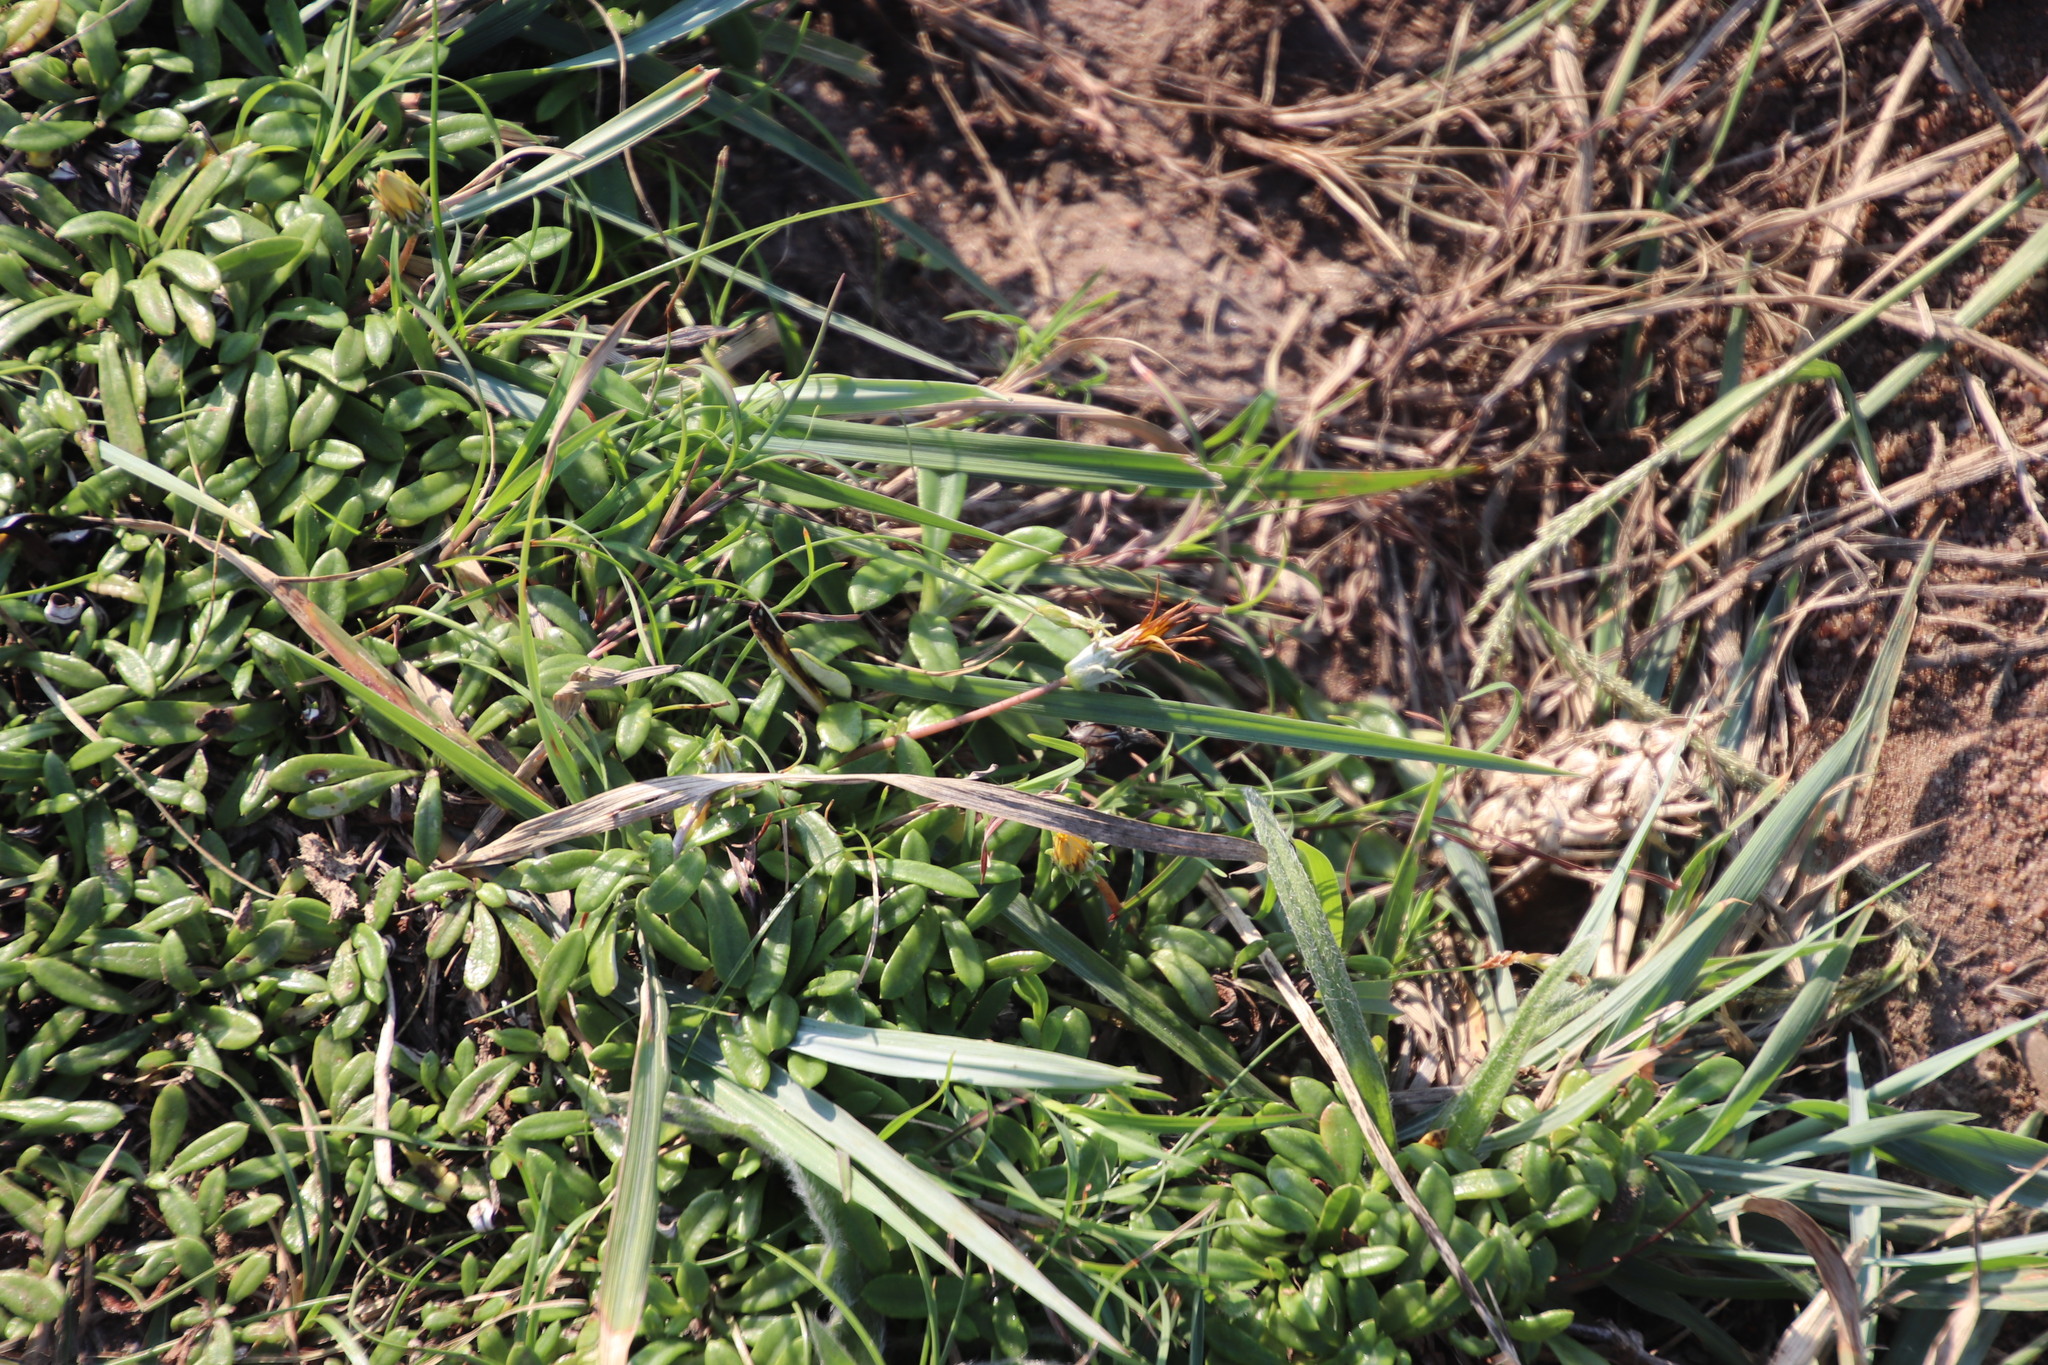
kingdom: Plantae
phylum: Tracheophyta
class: Magnoliopsida
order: Asterales
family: Asteraceae
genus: Gazania
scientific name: Gazania rigens
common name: Treasureflower
